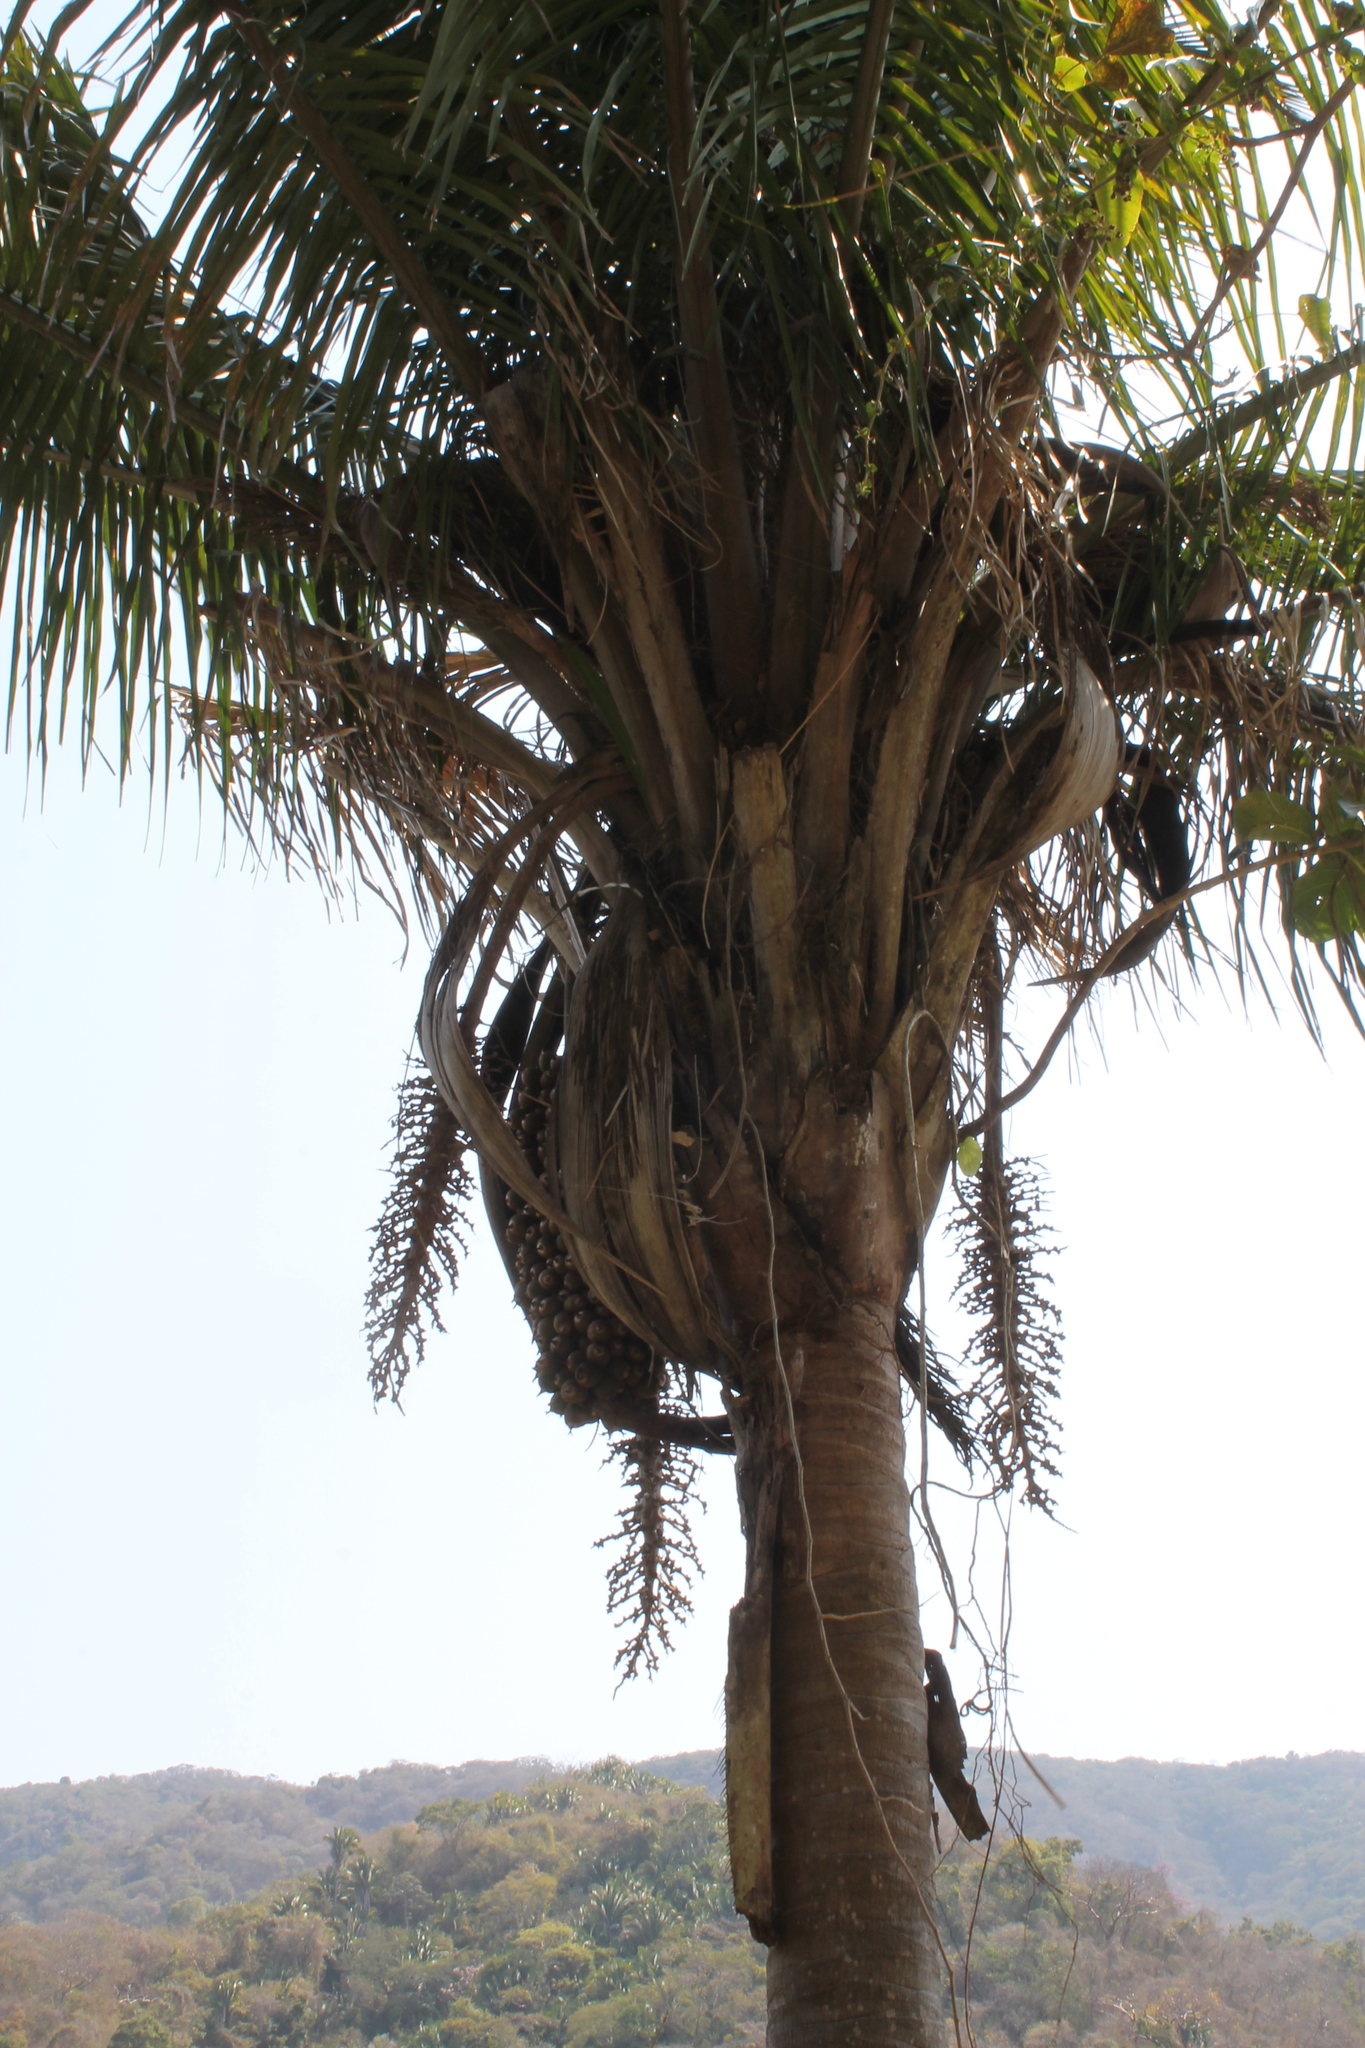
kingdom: Plantae
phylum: Tracheophyta
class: Liliopsida
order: Arecales
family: Arecaceae
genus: Attalea
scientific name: Attalea cohune
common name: Cohune palm
